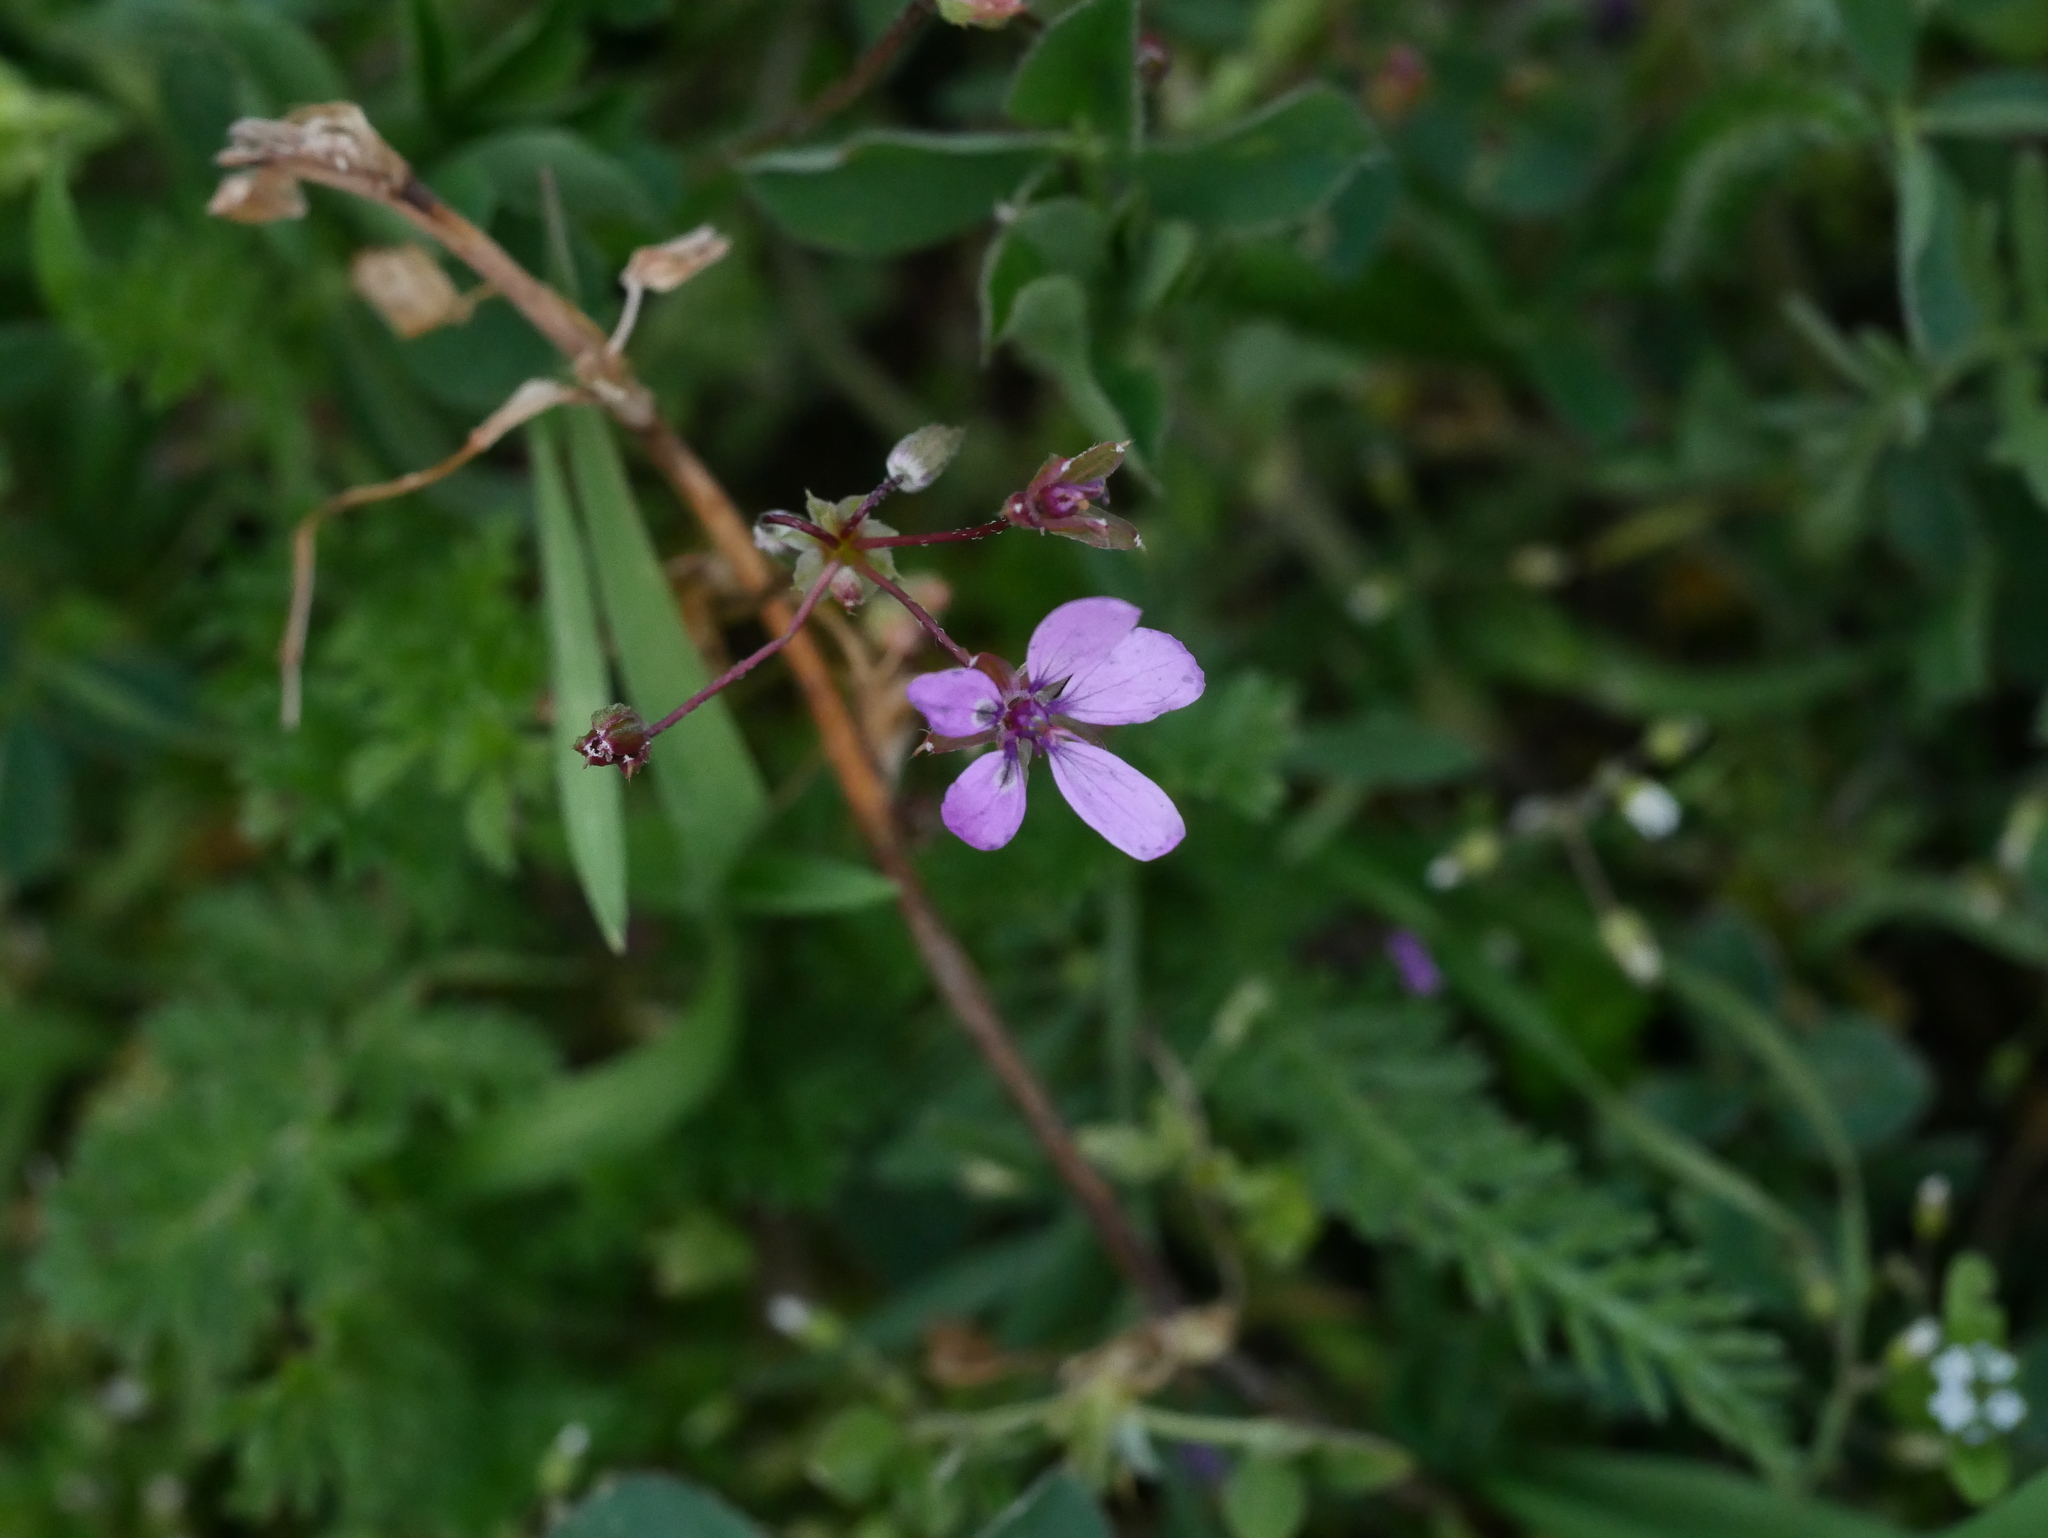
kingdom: Plantae
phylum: Tracheophyta
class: Magnoliopsida
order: Geraniales
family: Geraniaceae
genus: Erodium
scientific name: Erodium cicutarium
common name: Common stork's-bill
